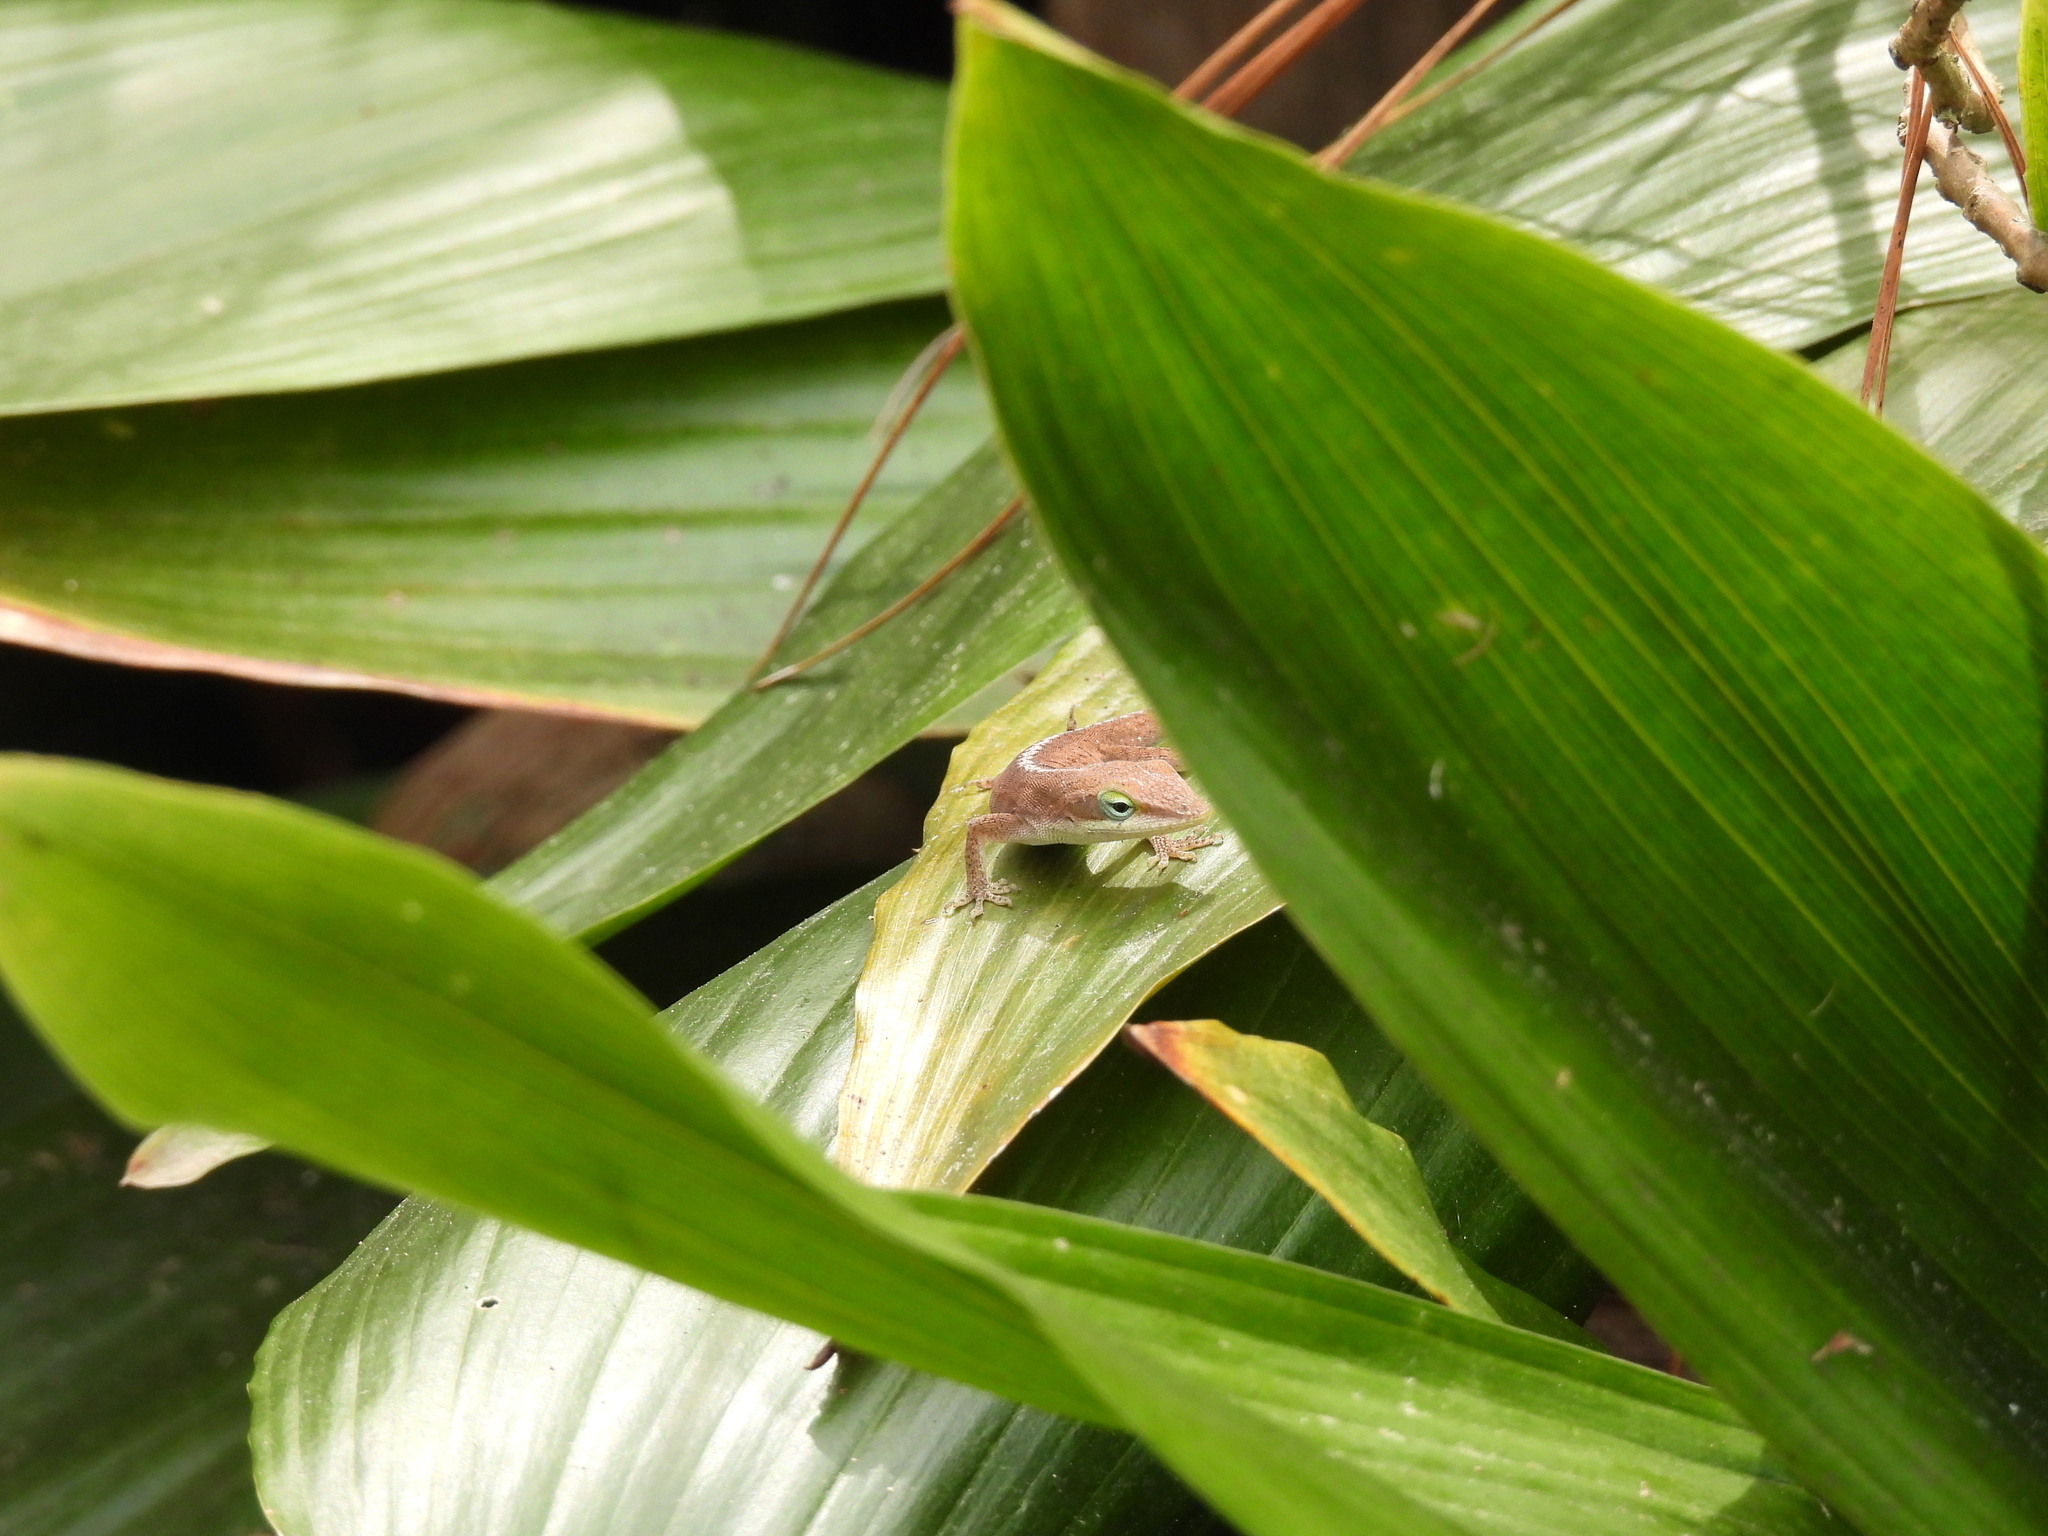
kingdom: Animalia
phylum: Chordata
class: Squamata
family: Dactyloidae
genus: Anolis
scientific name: Anolis carolinensis
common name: Green anole
